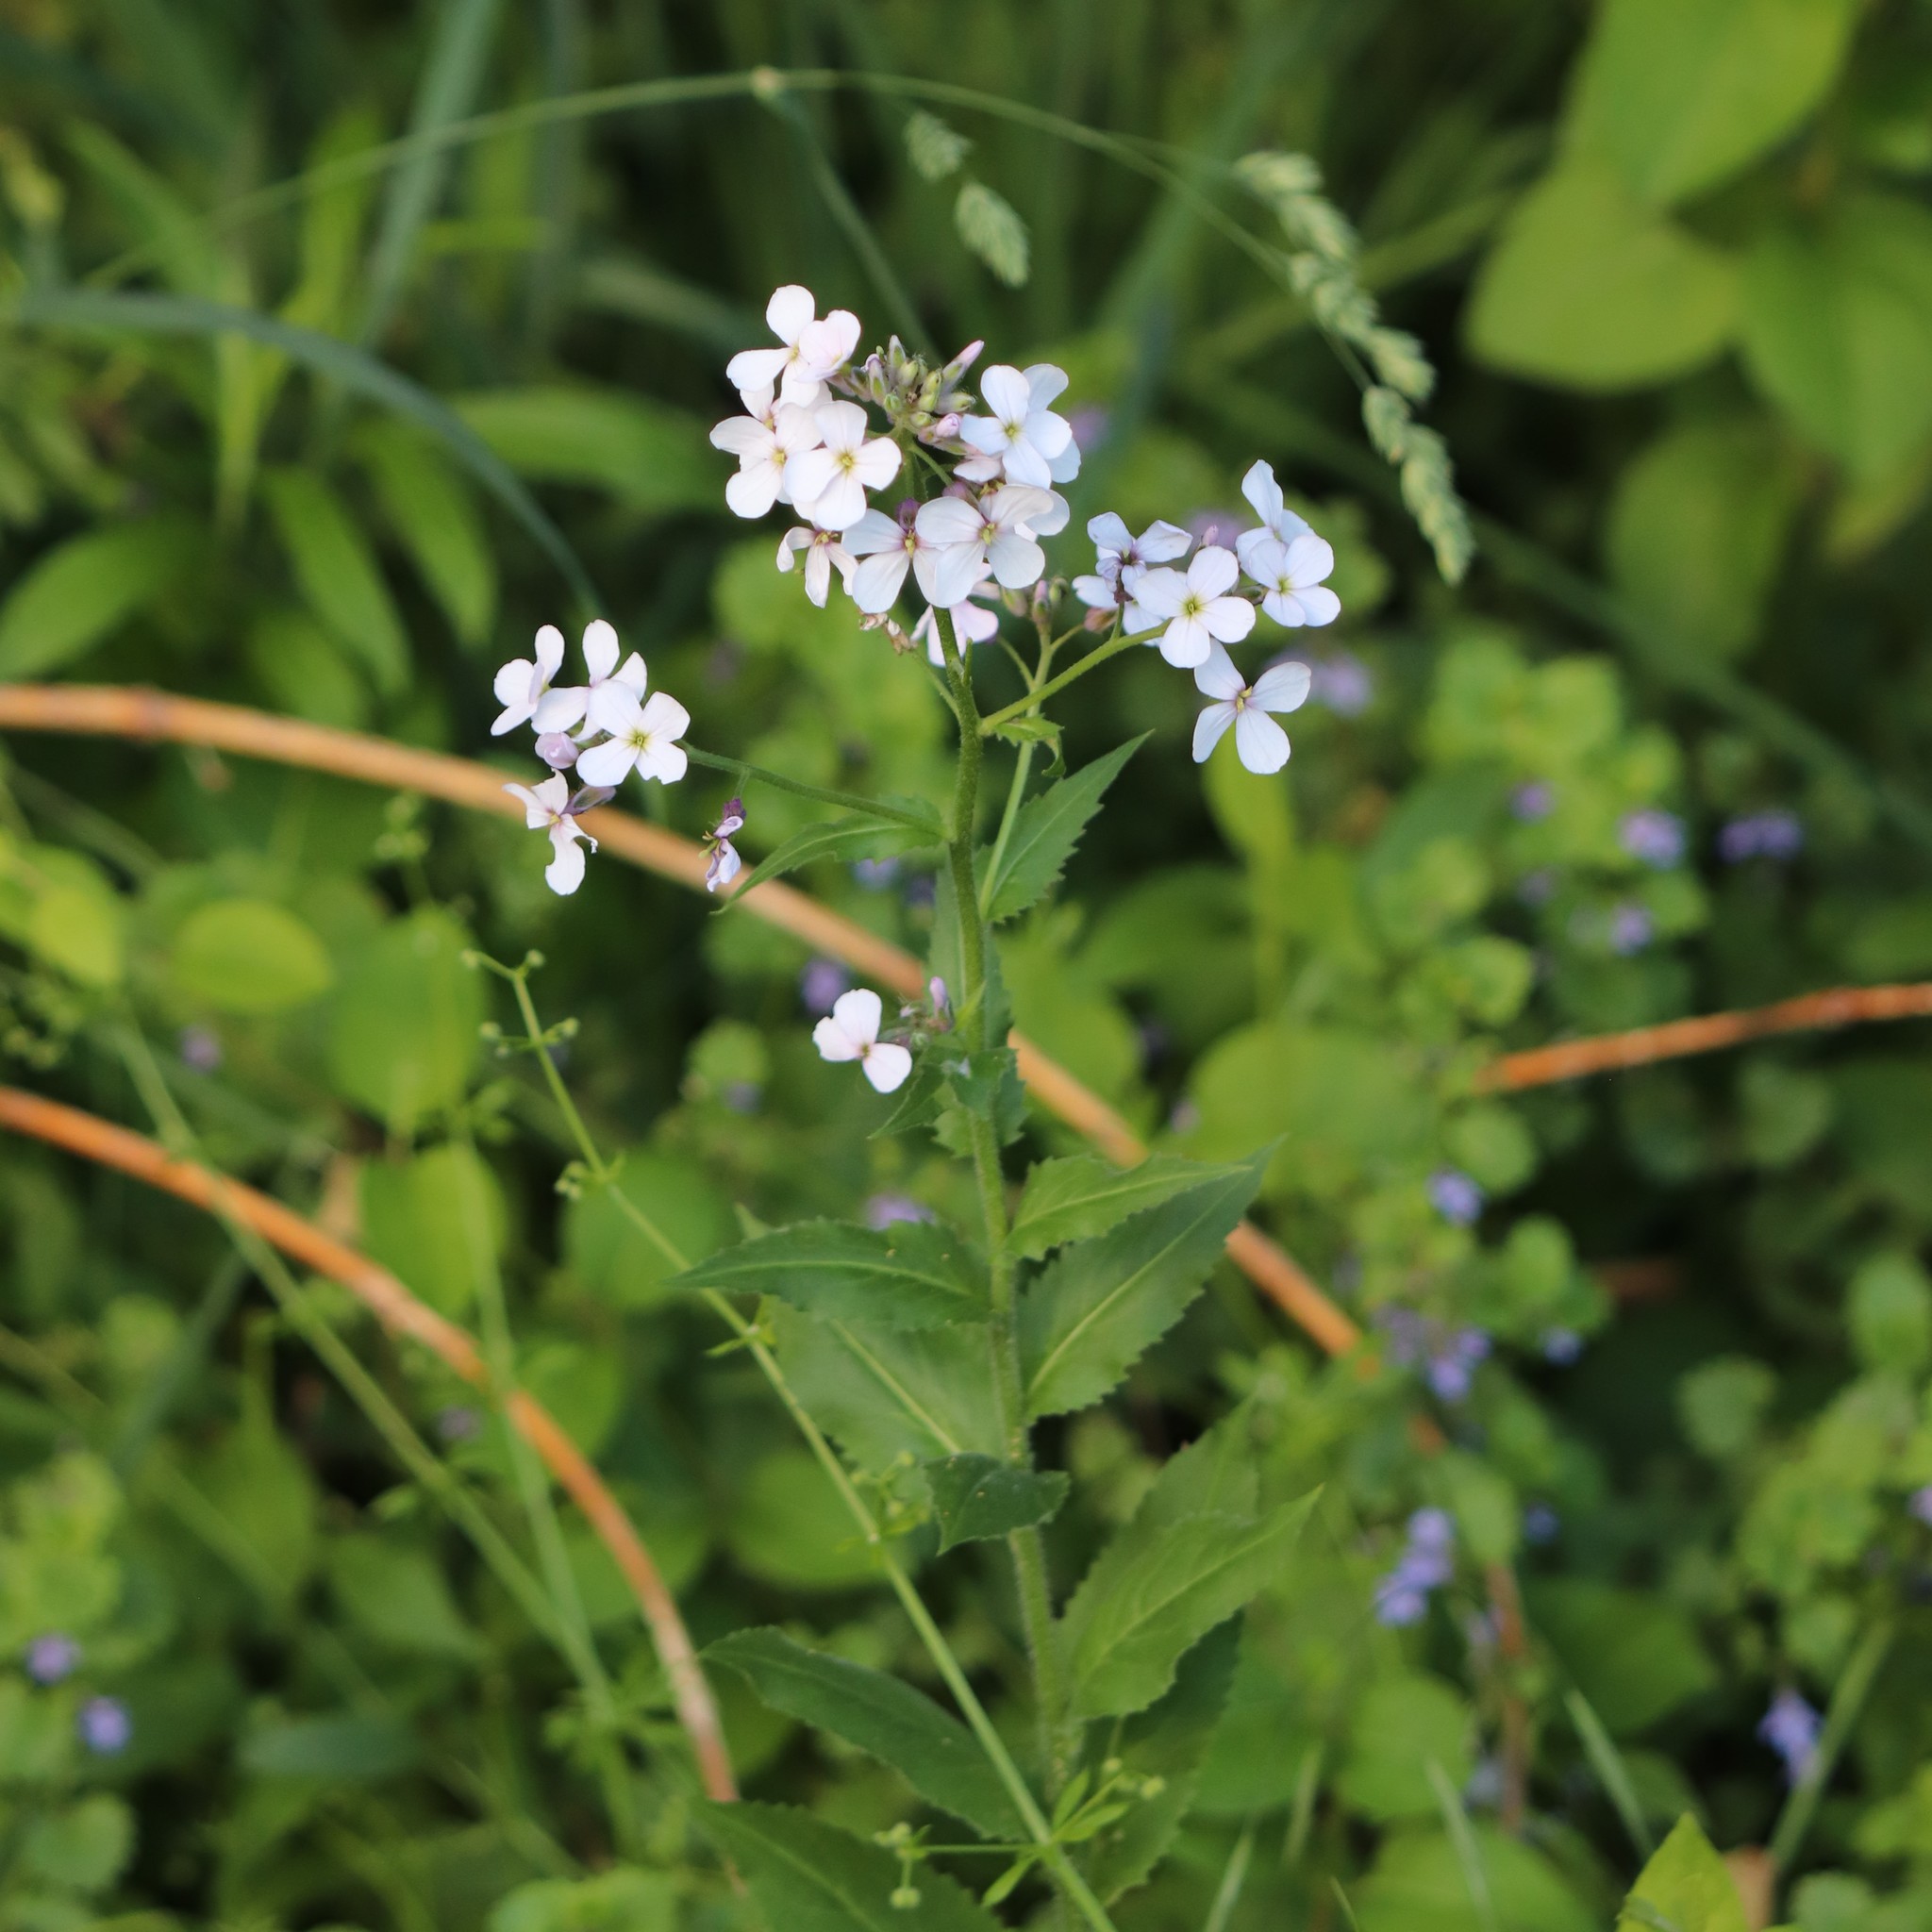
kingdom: Plantae
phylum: Tracheophyta
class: Magnoliopsida
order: Brassicales
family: Brassicaceae
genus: Hesperis
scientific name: Hesperis matronalis
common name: Dame's-violet
